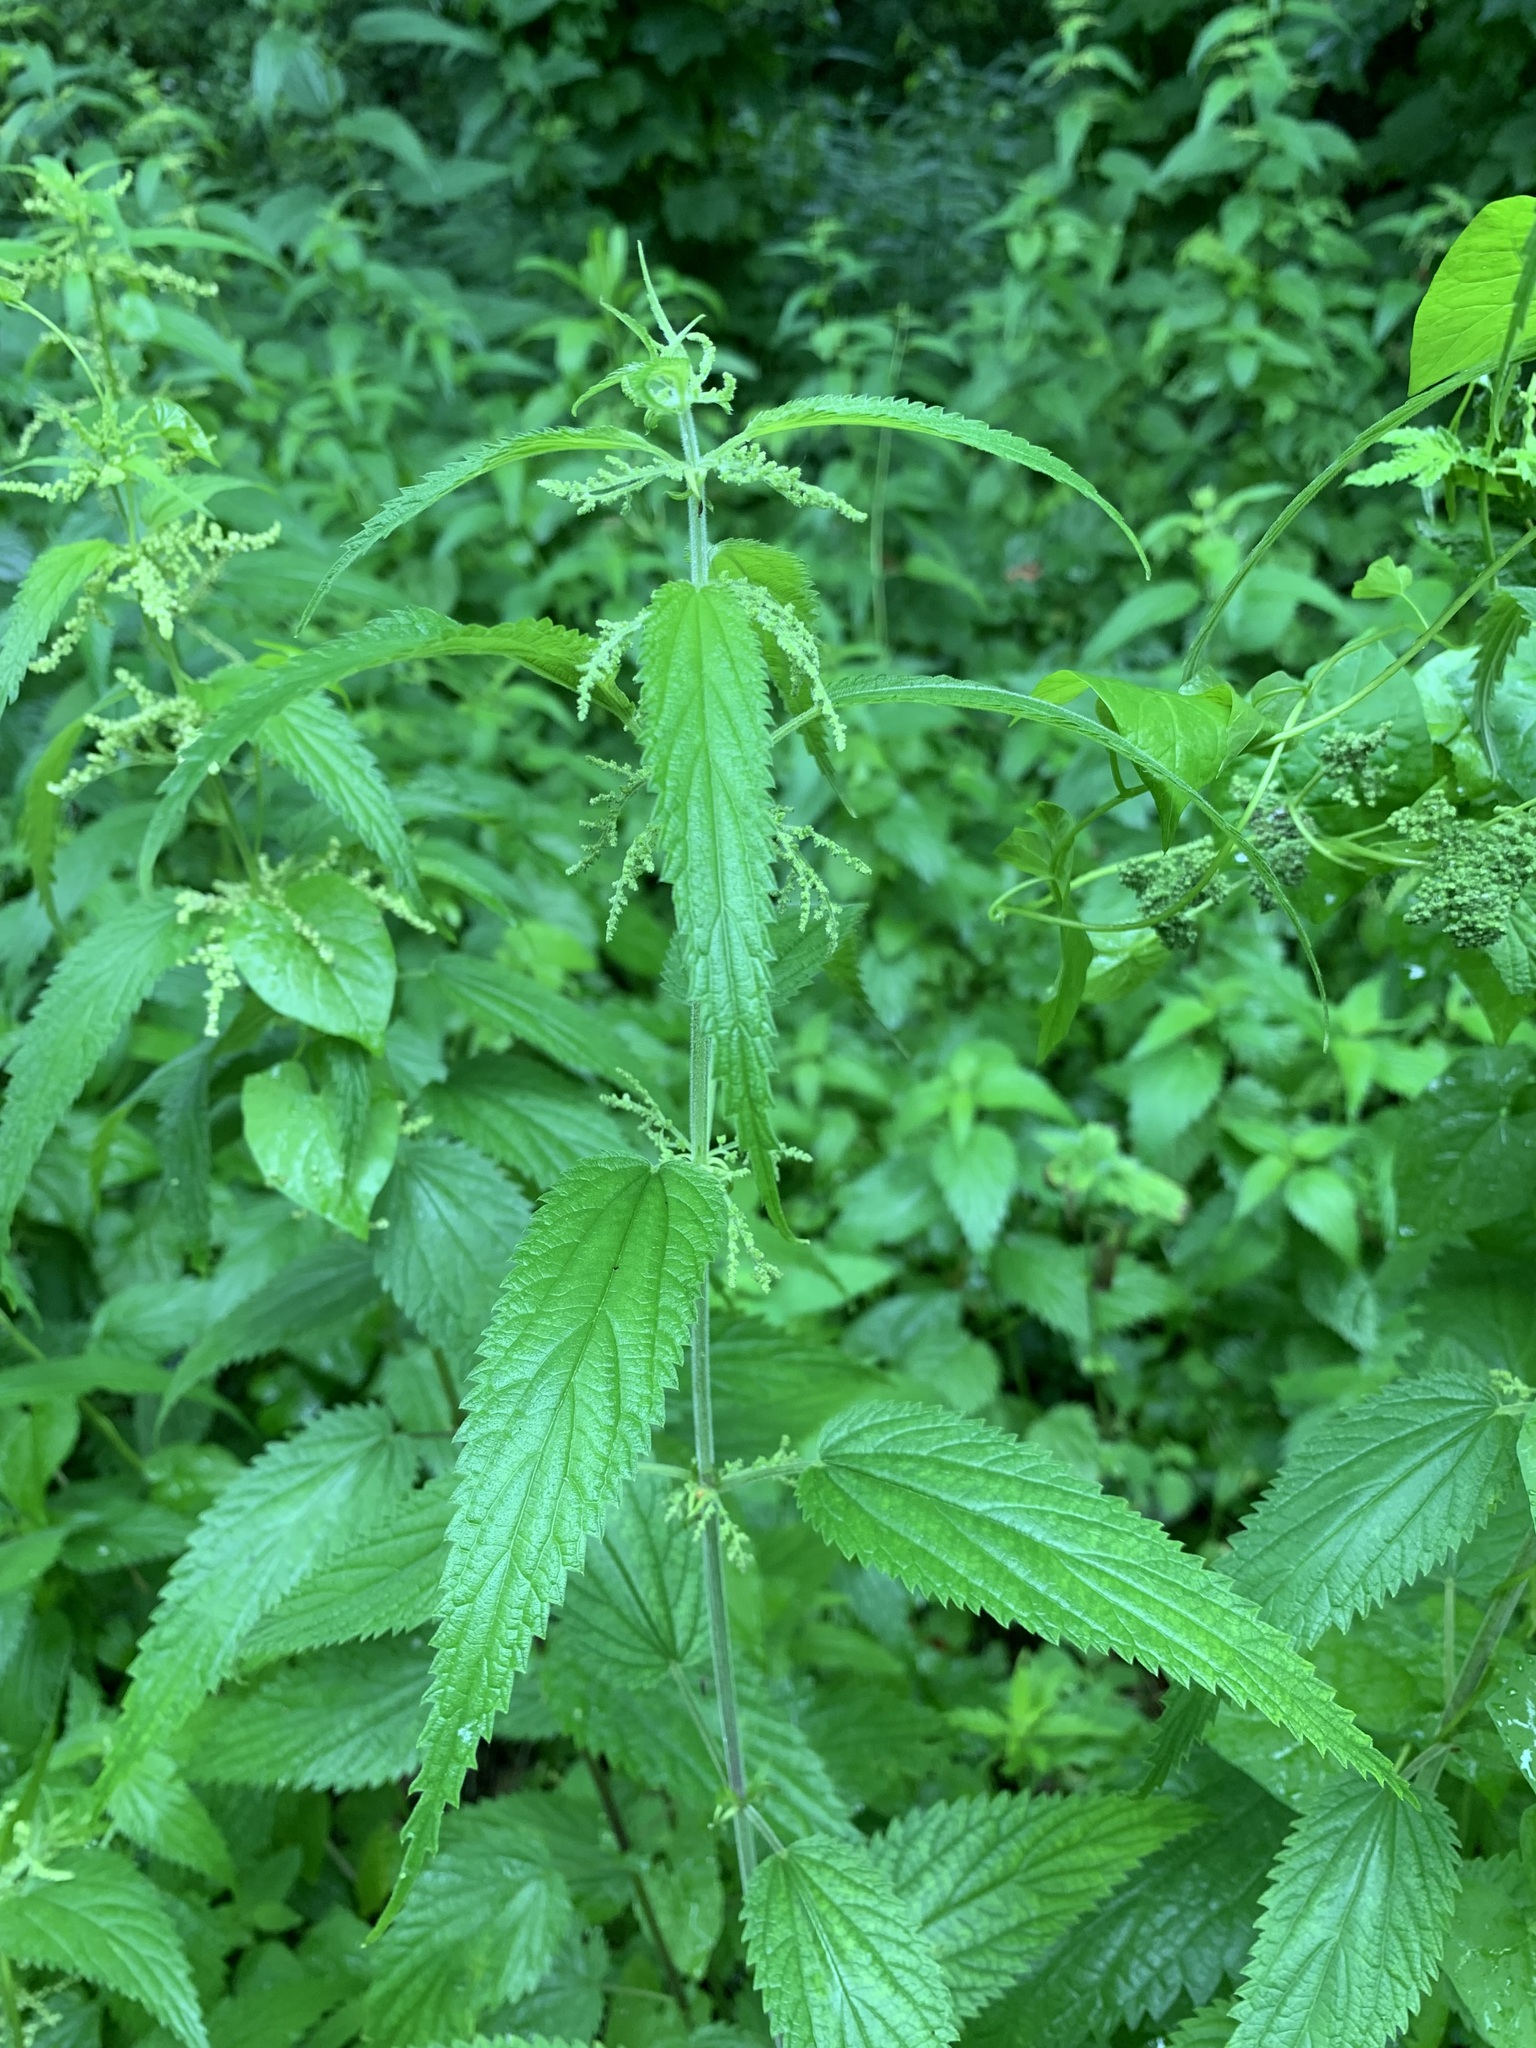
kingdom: Plantae
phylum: Tracheophyta
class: Magnoliopsida
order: Rosales
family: Urticaceae
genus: Urtica
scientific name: Urtica galeopsifolia
